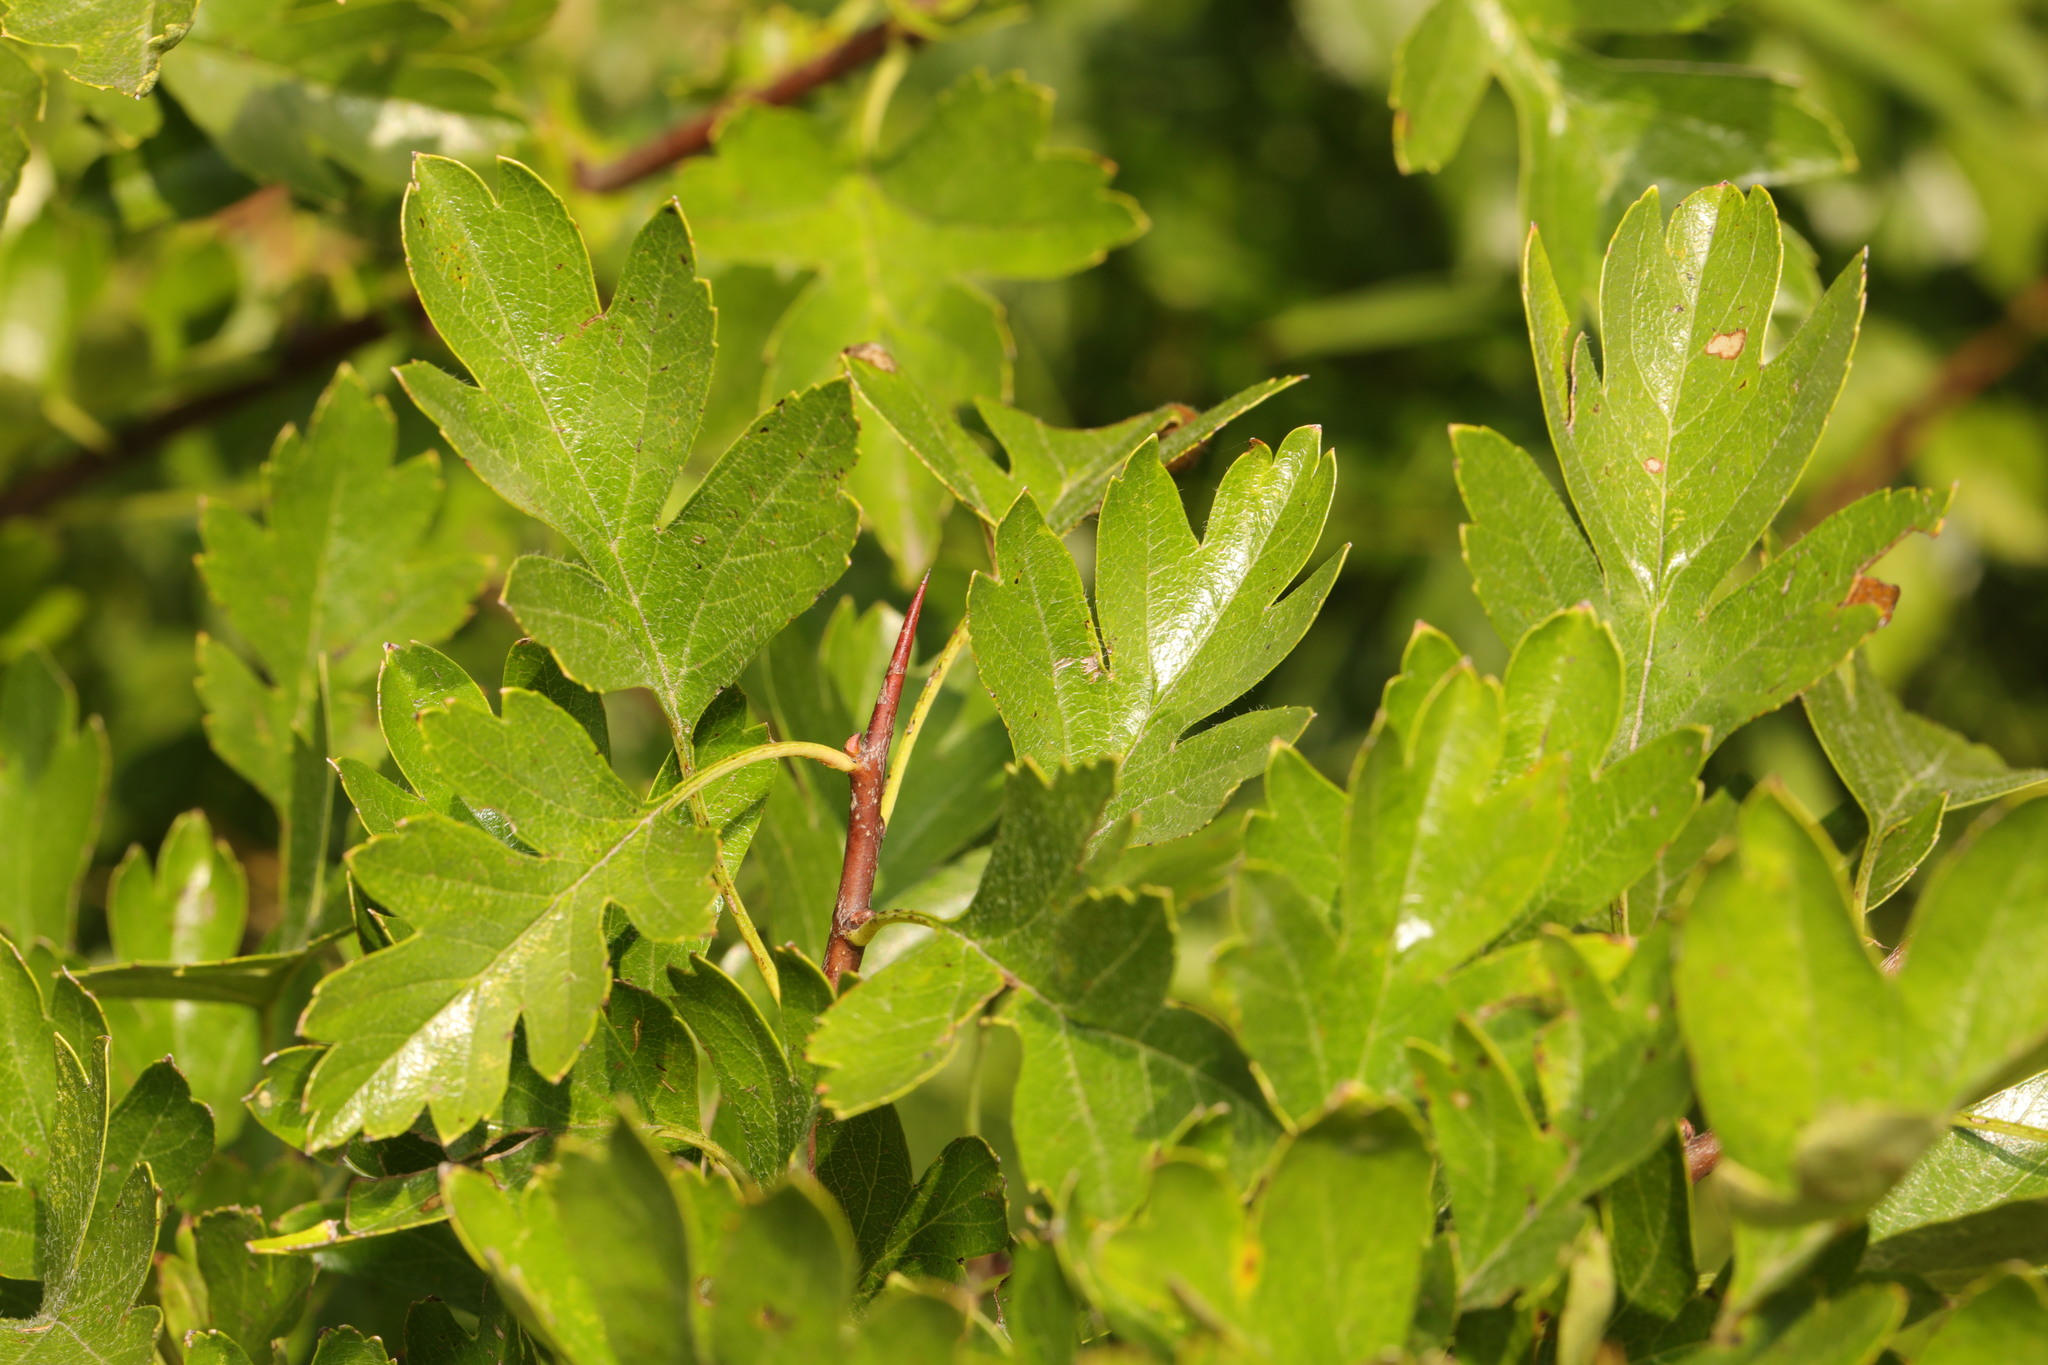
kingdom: Plantae
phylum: Tracheophyta
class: Magnoliopsida
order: Rosales
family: Rosaceae
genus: Crataegus
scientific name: Crataegus monogyna
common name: Hawthorn
